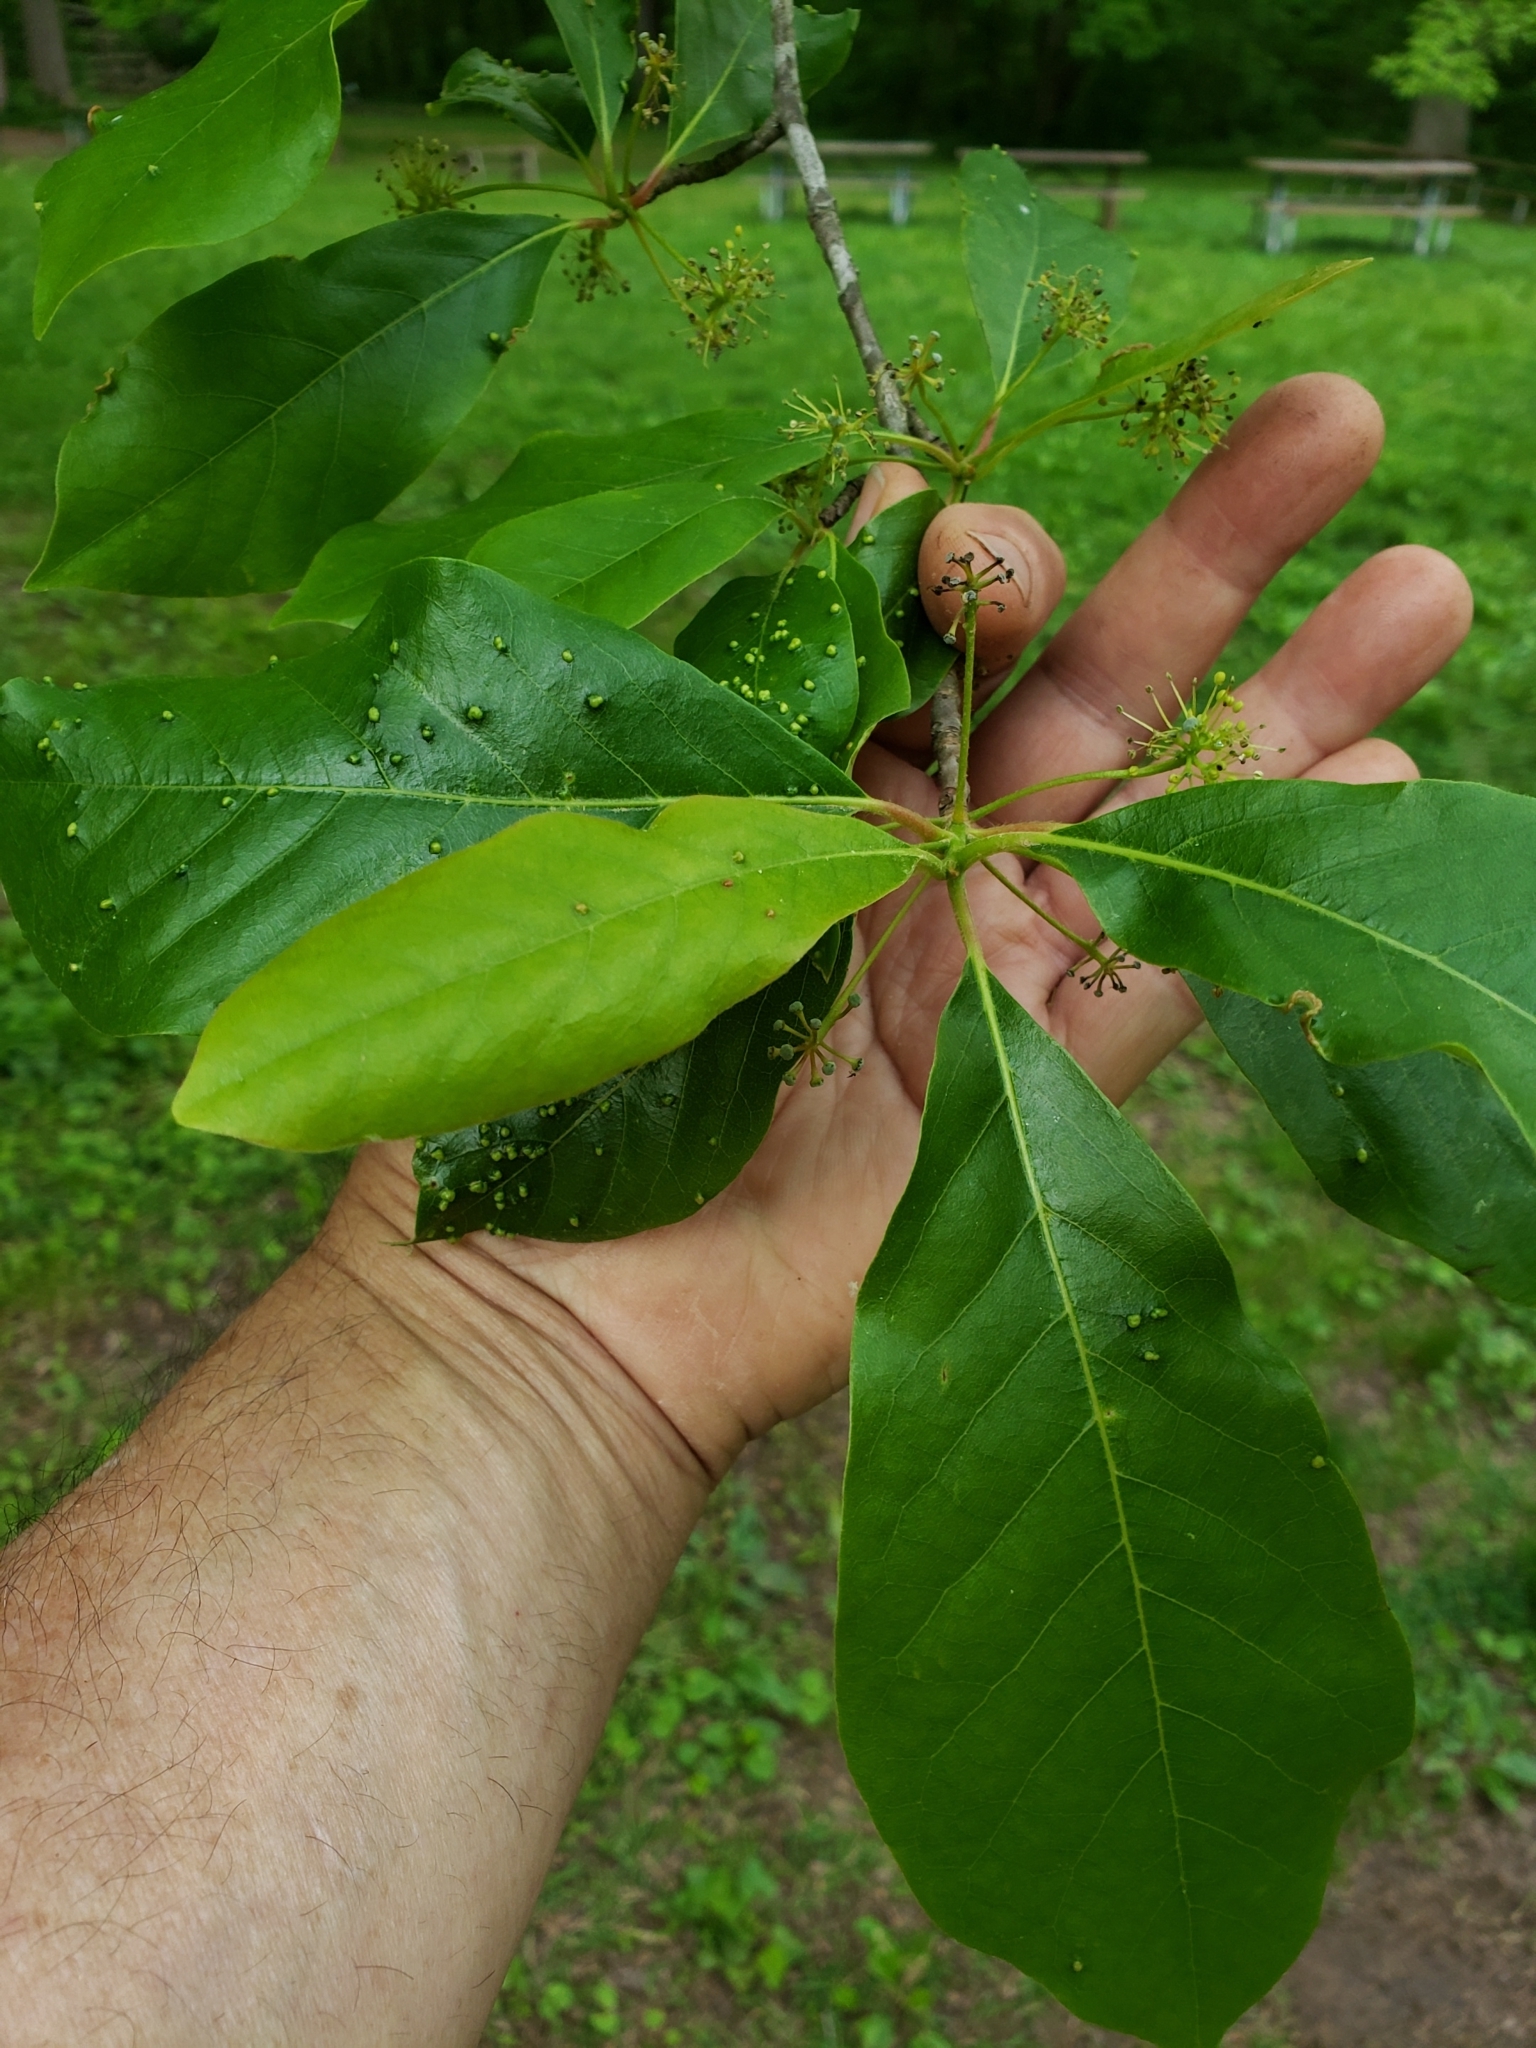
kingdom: Animalia
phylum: Arthropoda
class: Arachnida
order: Trombidiformes
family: Eriophyidae
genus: Aceria
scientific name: Aceria
